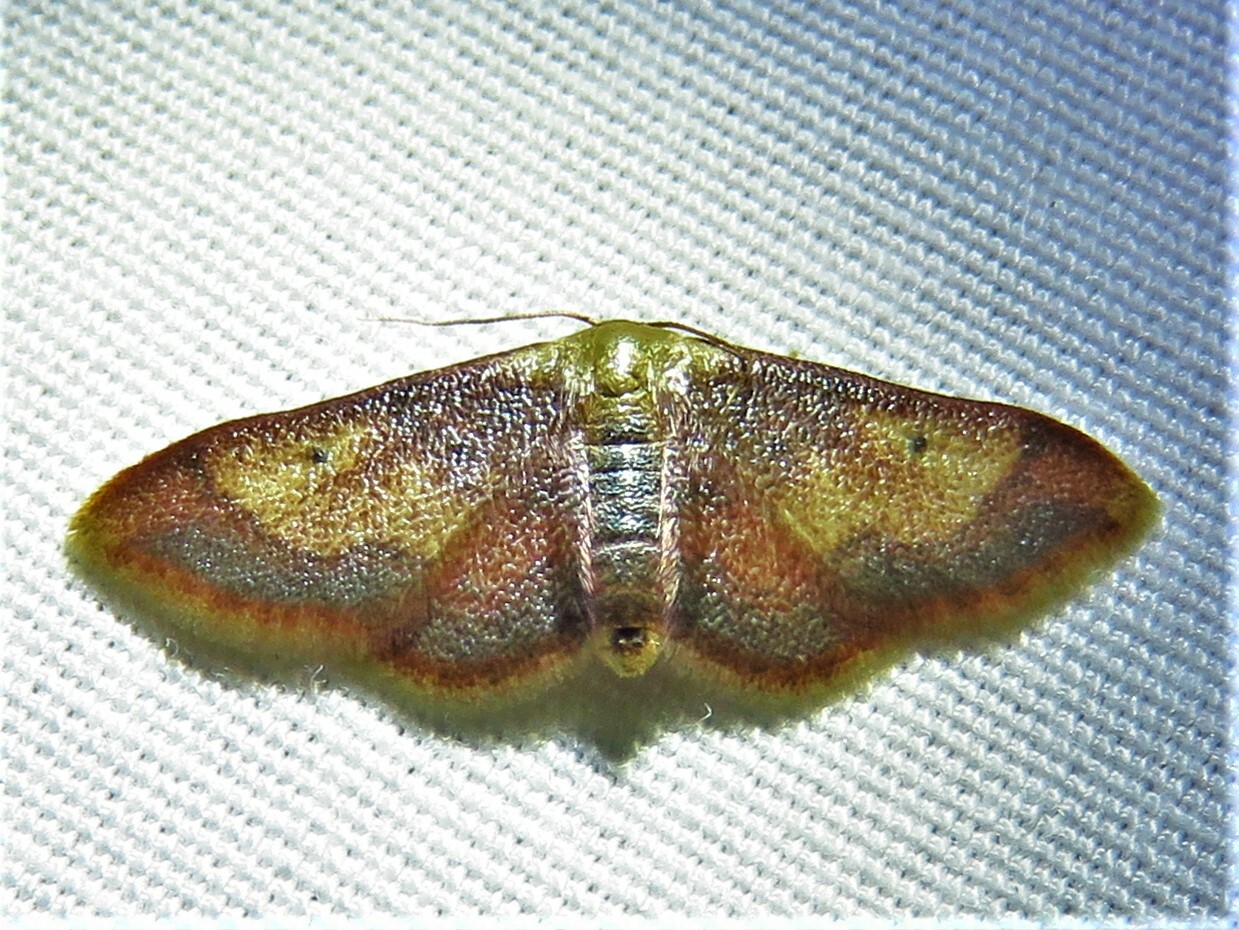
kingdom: Animalia
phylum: Arthropoda
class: Insecta
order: Lepidoptera
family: Geometridae
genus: Idaea
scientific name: Idaea demissaria
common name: Red-bordered wave
